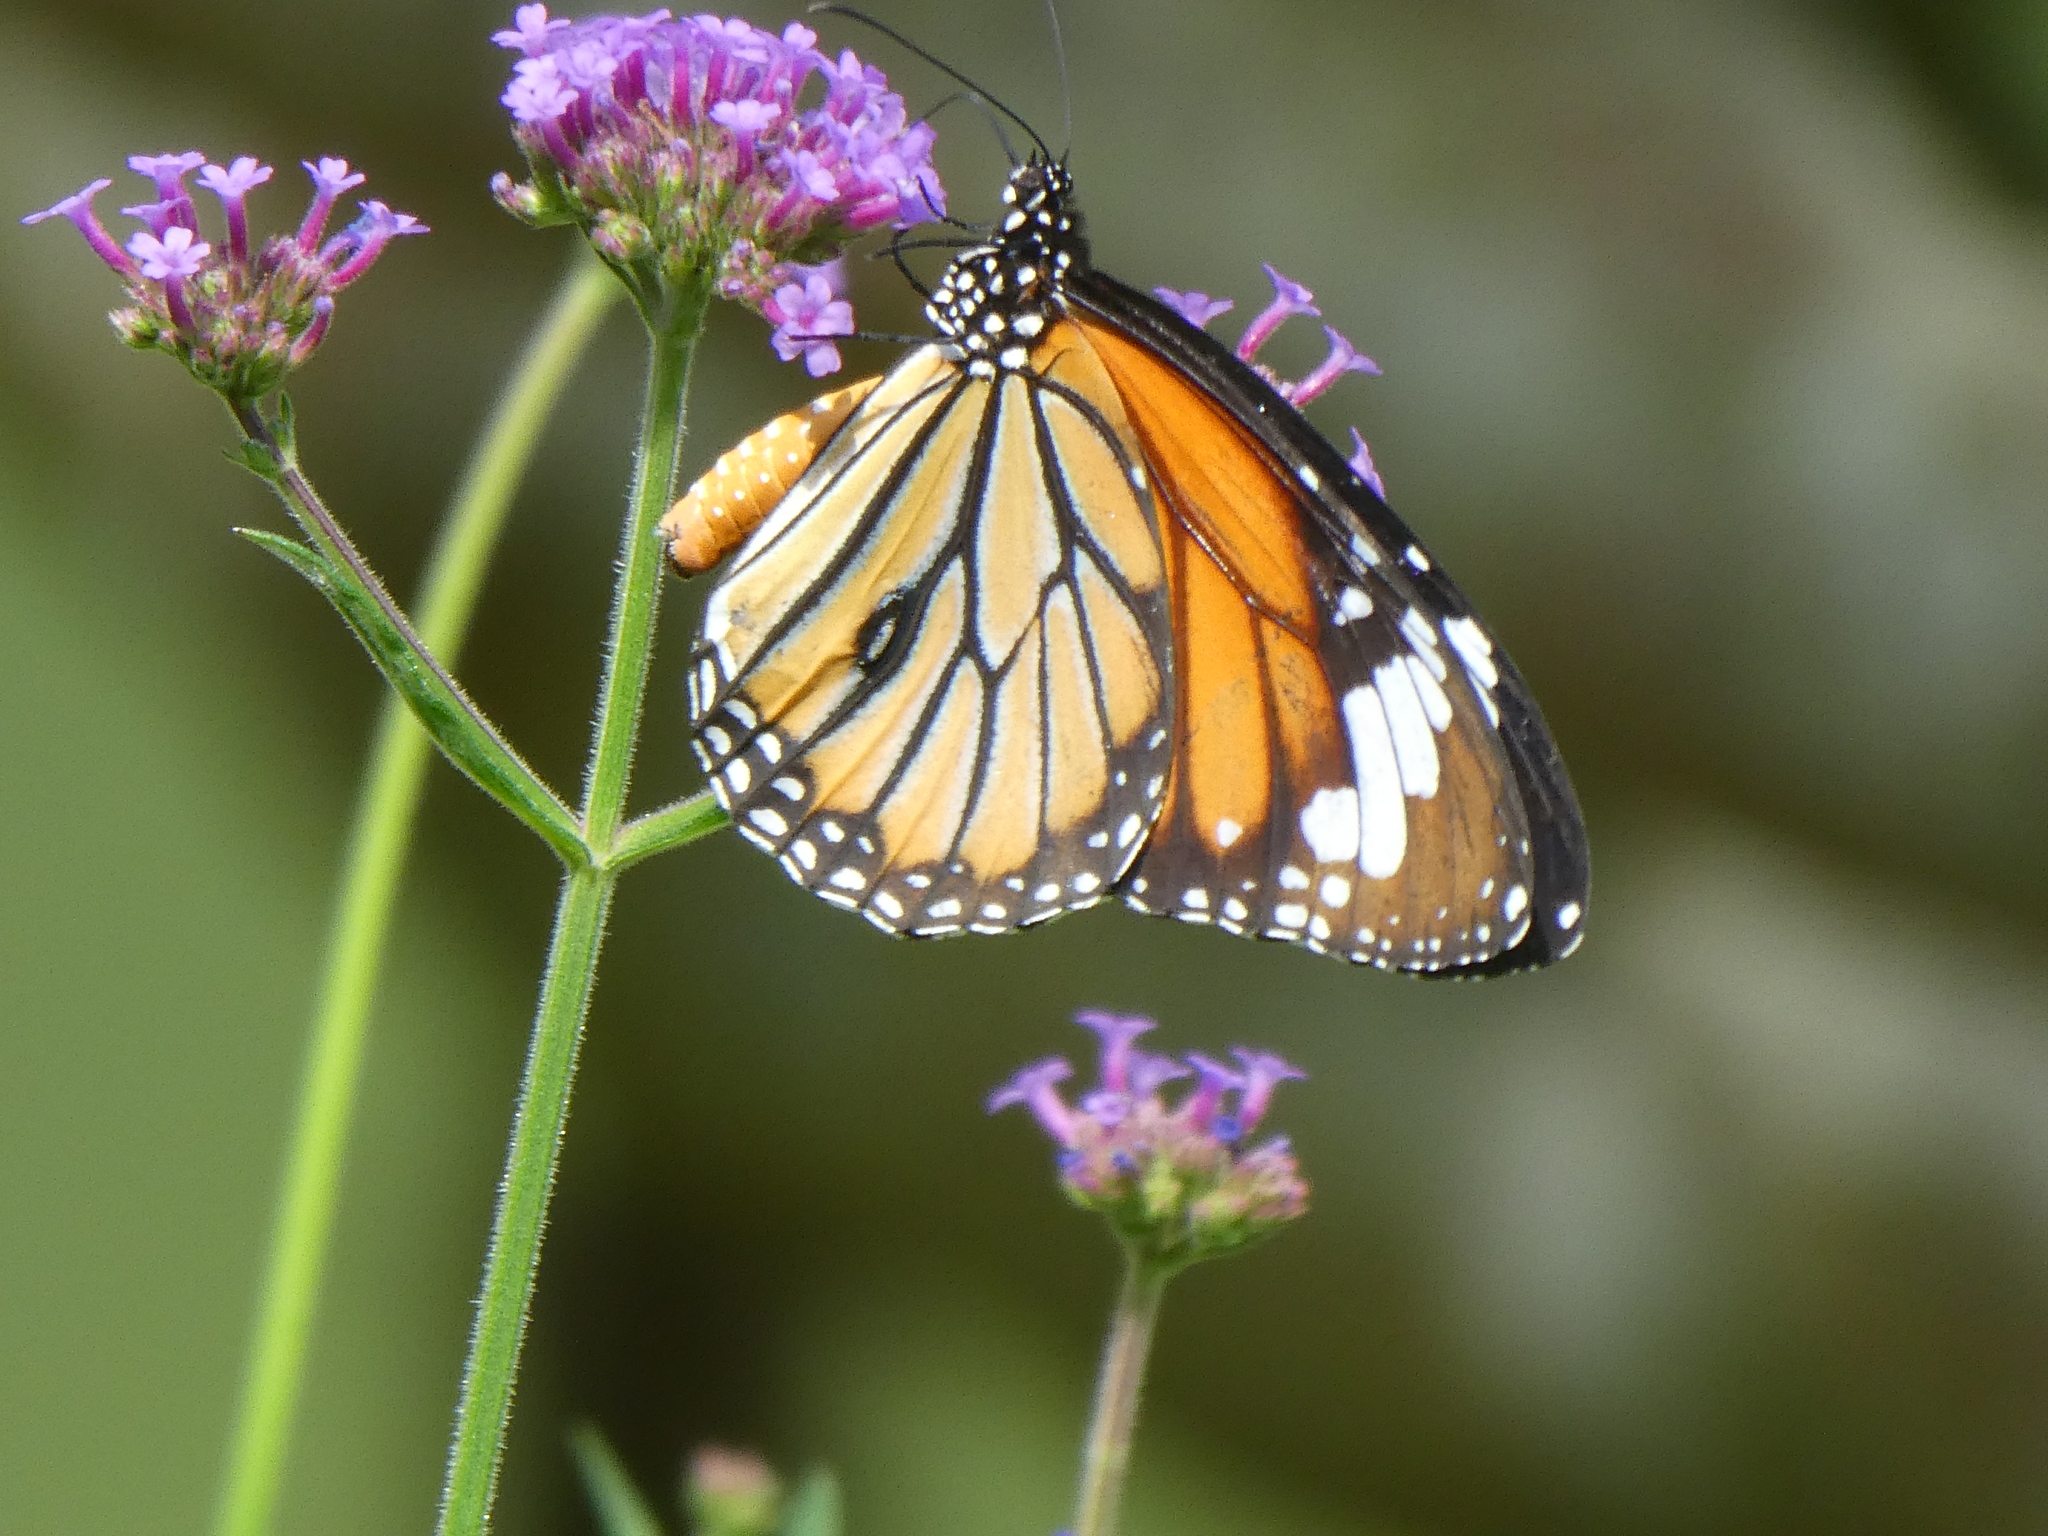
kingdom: Animalia
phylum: Arthropoda
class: Insecta
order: Lepidoptera
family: Nymphalidae
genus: Danaus
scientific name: Danaus genutia
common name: Common tiger butterfly
